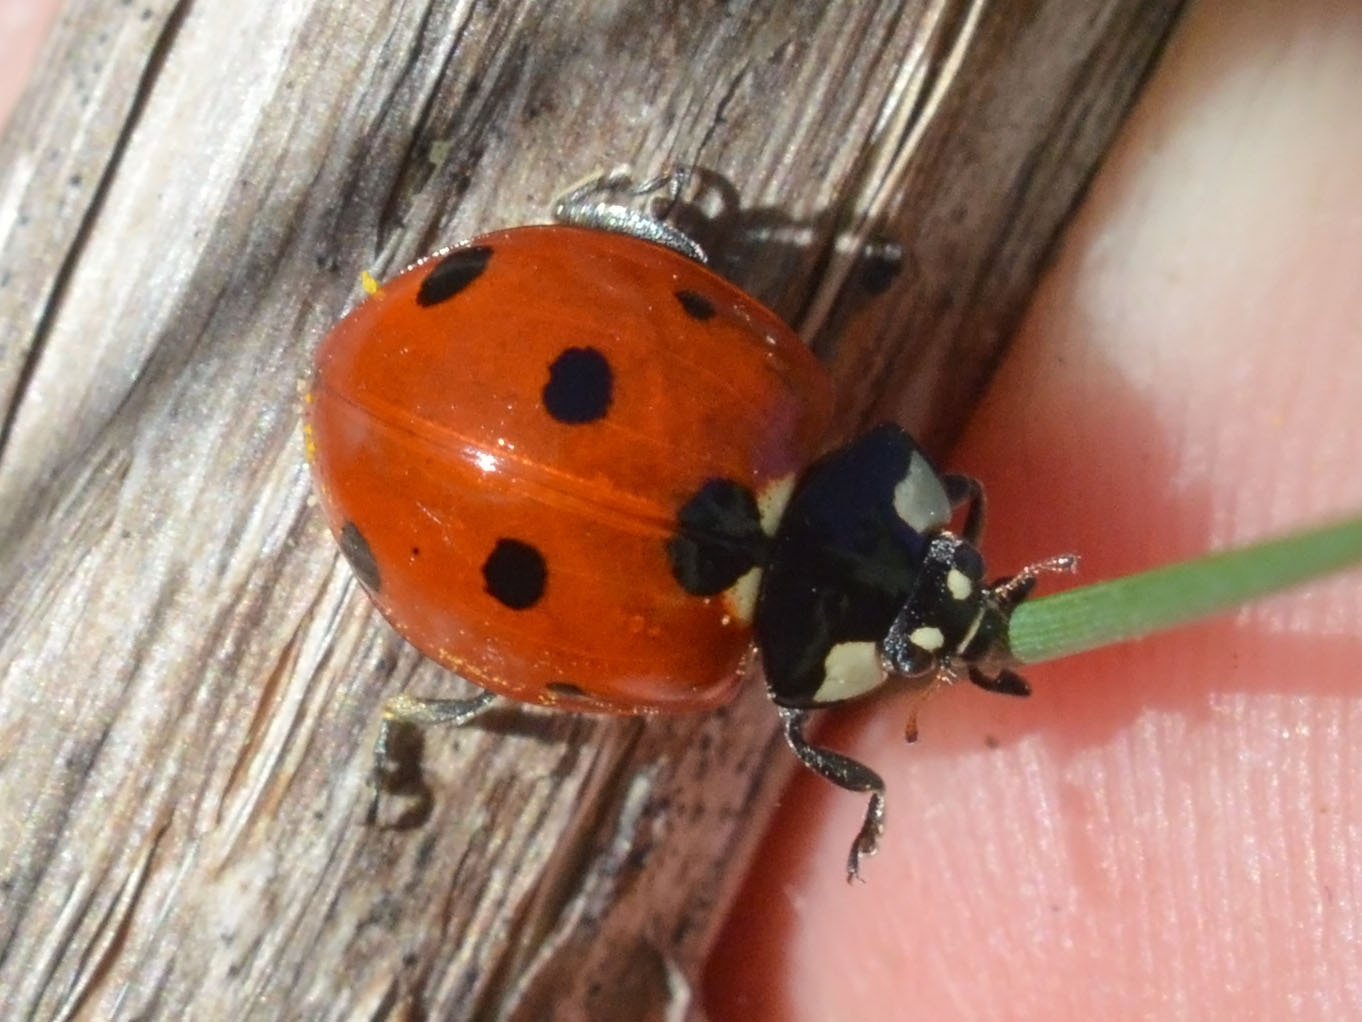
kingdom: Animalia
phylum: Arthropoda
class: Insecta
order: Coleoptera
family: Coccinellidae
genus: Coccinella
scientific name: Coccinella septempunctata
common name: Sevenspotted lady beetle
